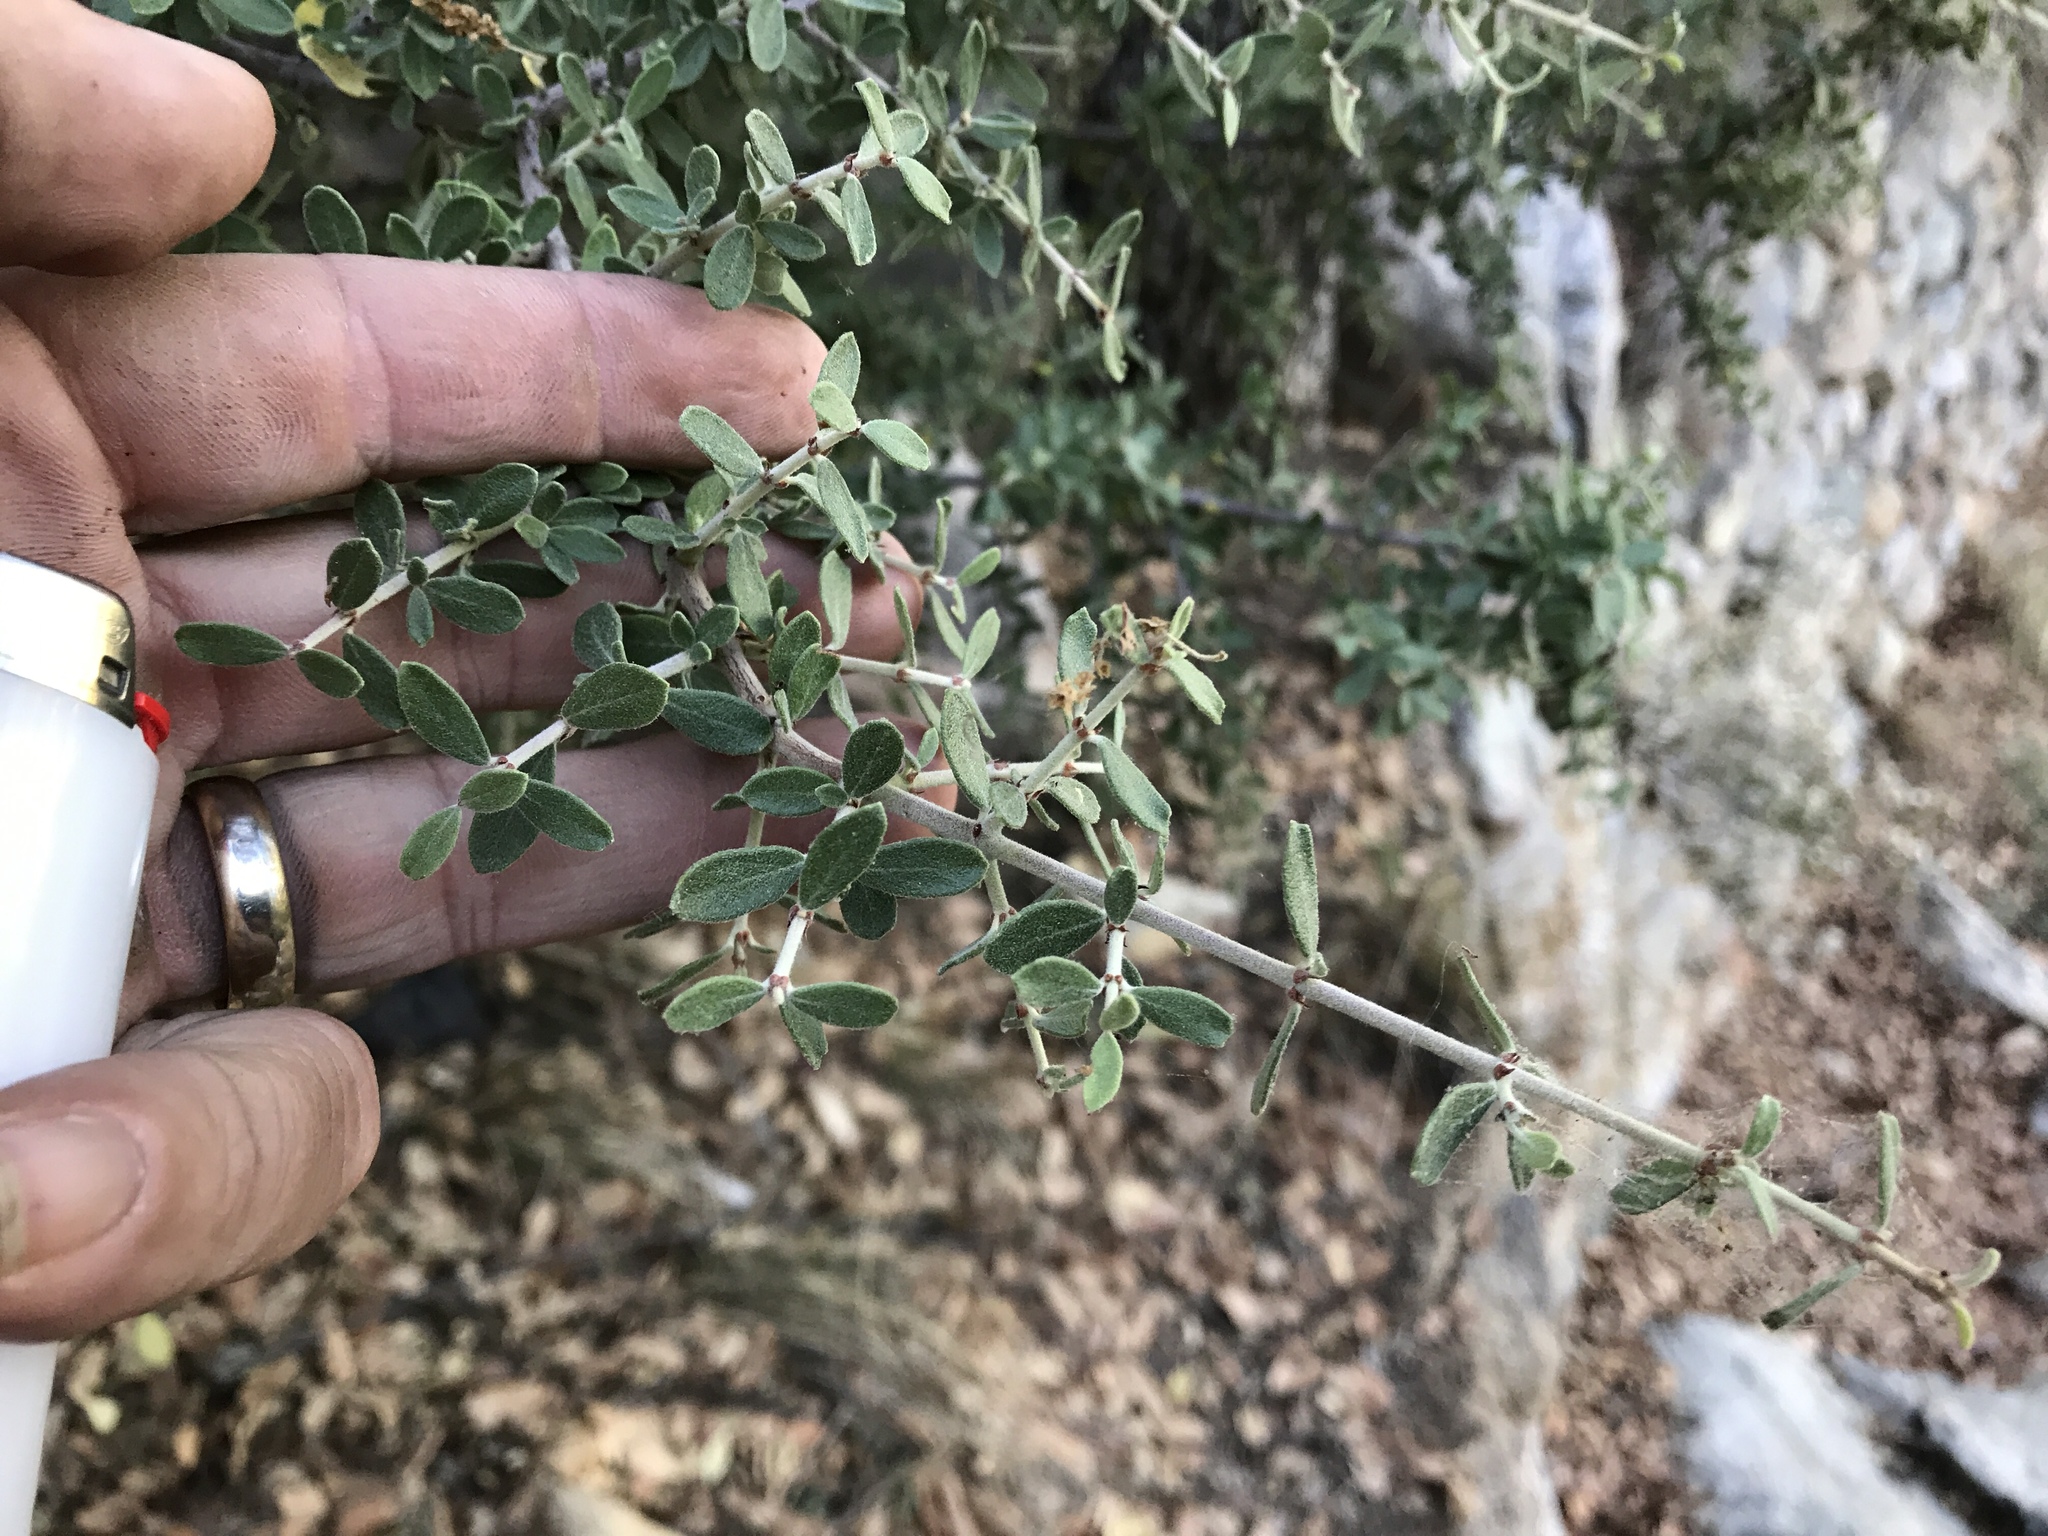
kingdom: Plantae
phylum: Tracheophyta
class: Magnoliopsida
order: Rosales
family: Rhamnaceae
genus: Ceanothus
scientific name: Ceanothus pauciflorus
